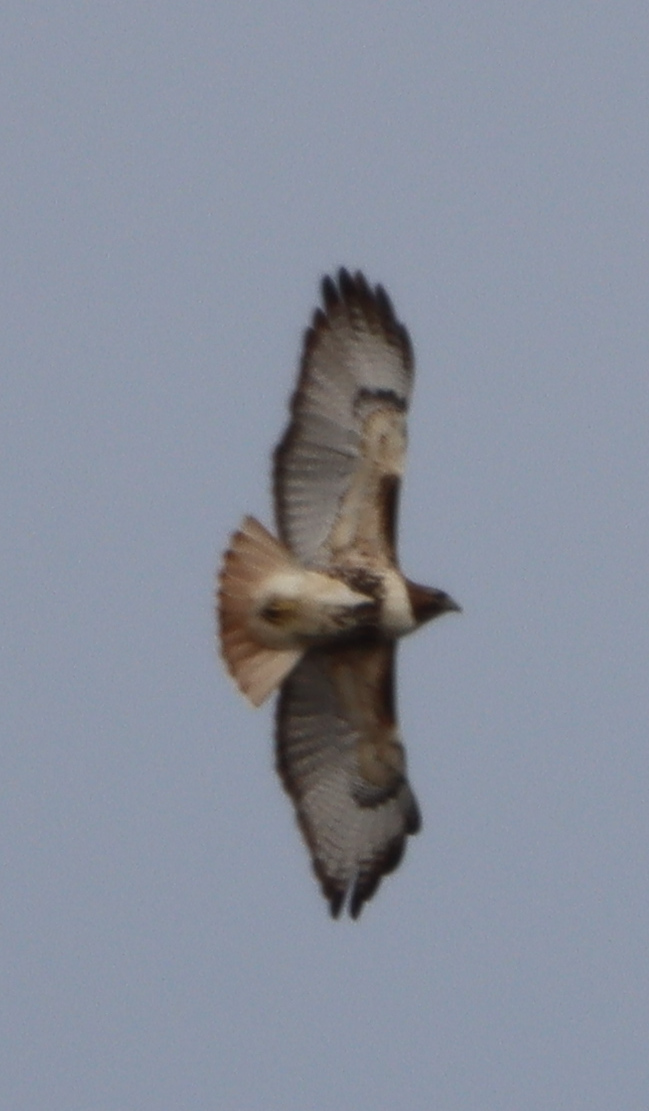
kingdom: Animalia
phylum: Chordata
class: Aves
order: Accipitriformes
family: Accipitridae
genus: Buteo
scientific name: Buteo jamaicensis
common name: Red-tailed hawk
